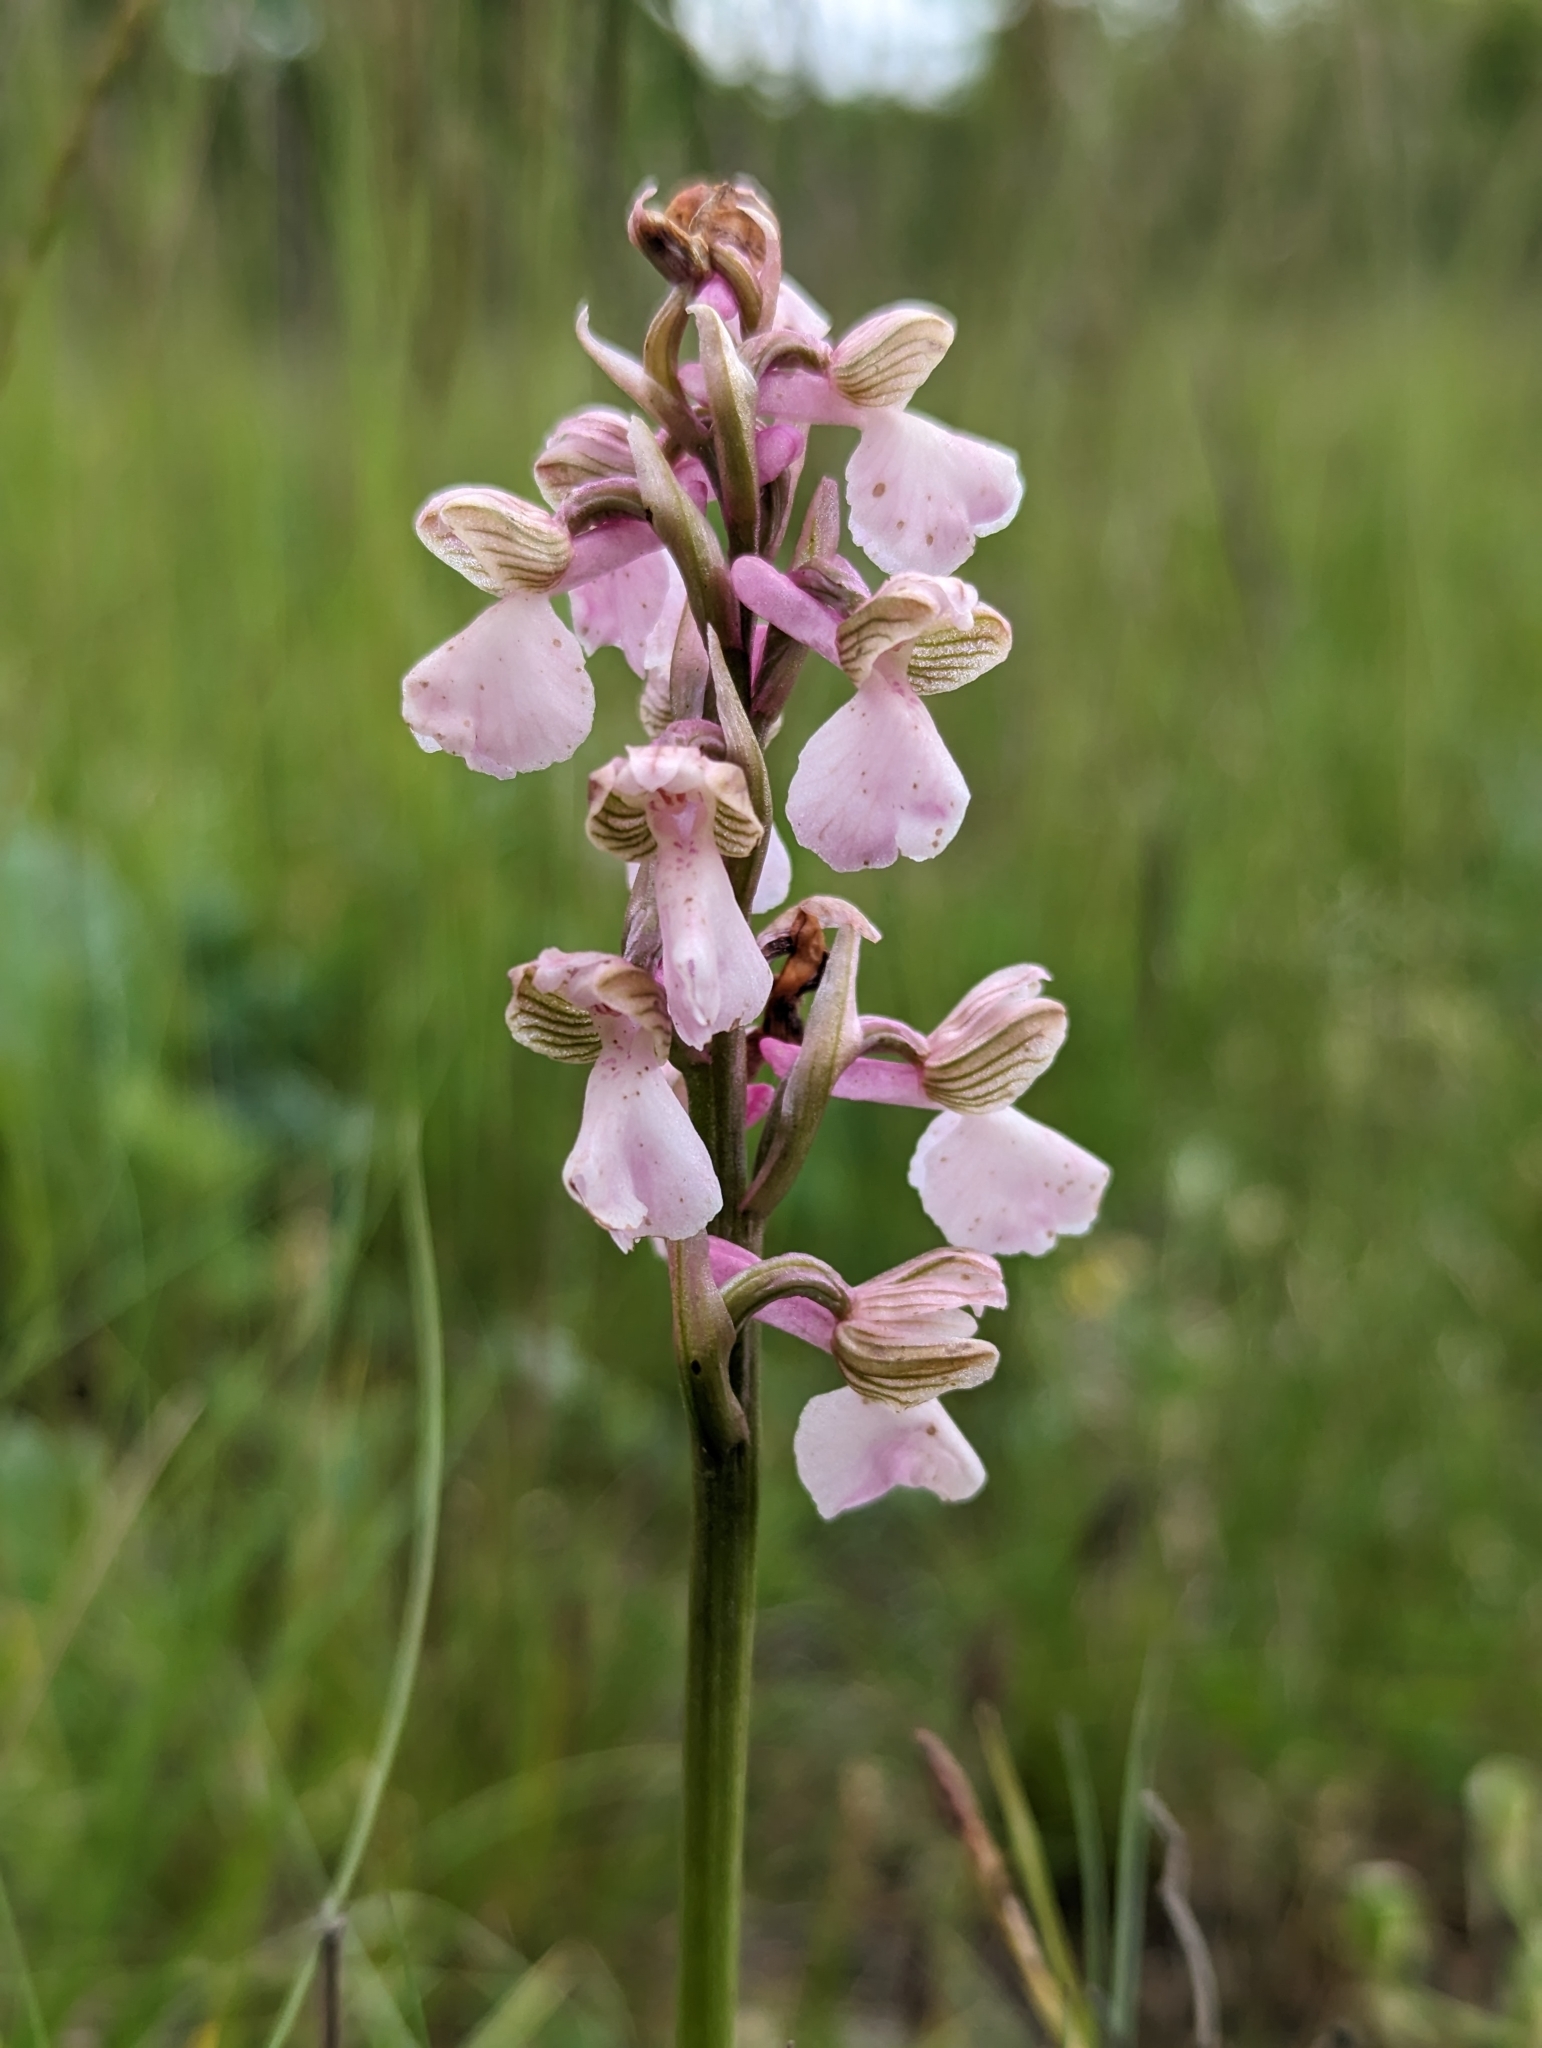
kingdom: Plantae
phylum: Tracheophyta
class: Liliopsida
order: Asparagales
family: Orchidaceae
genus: Anacamptis
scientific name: Anacamptis morio
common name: Green-winged orchid
